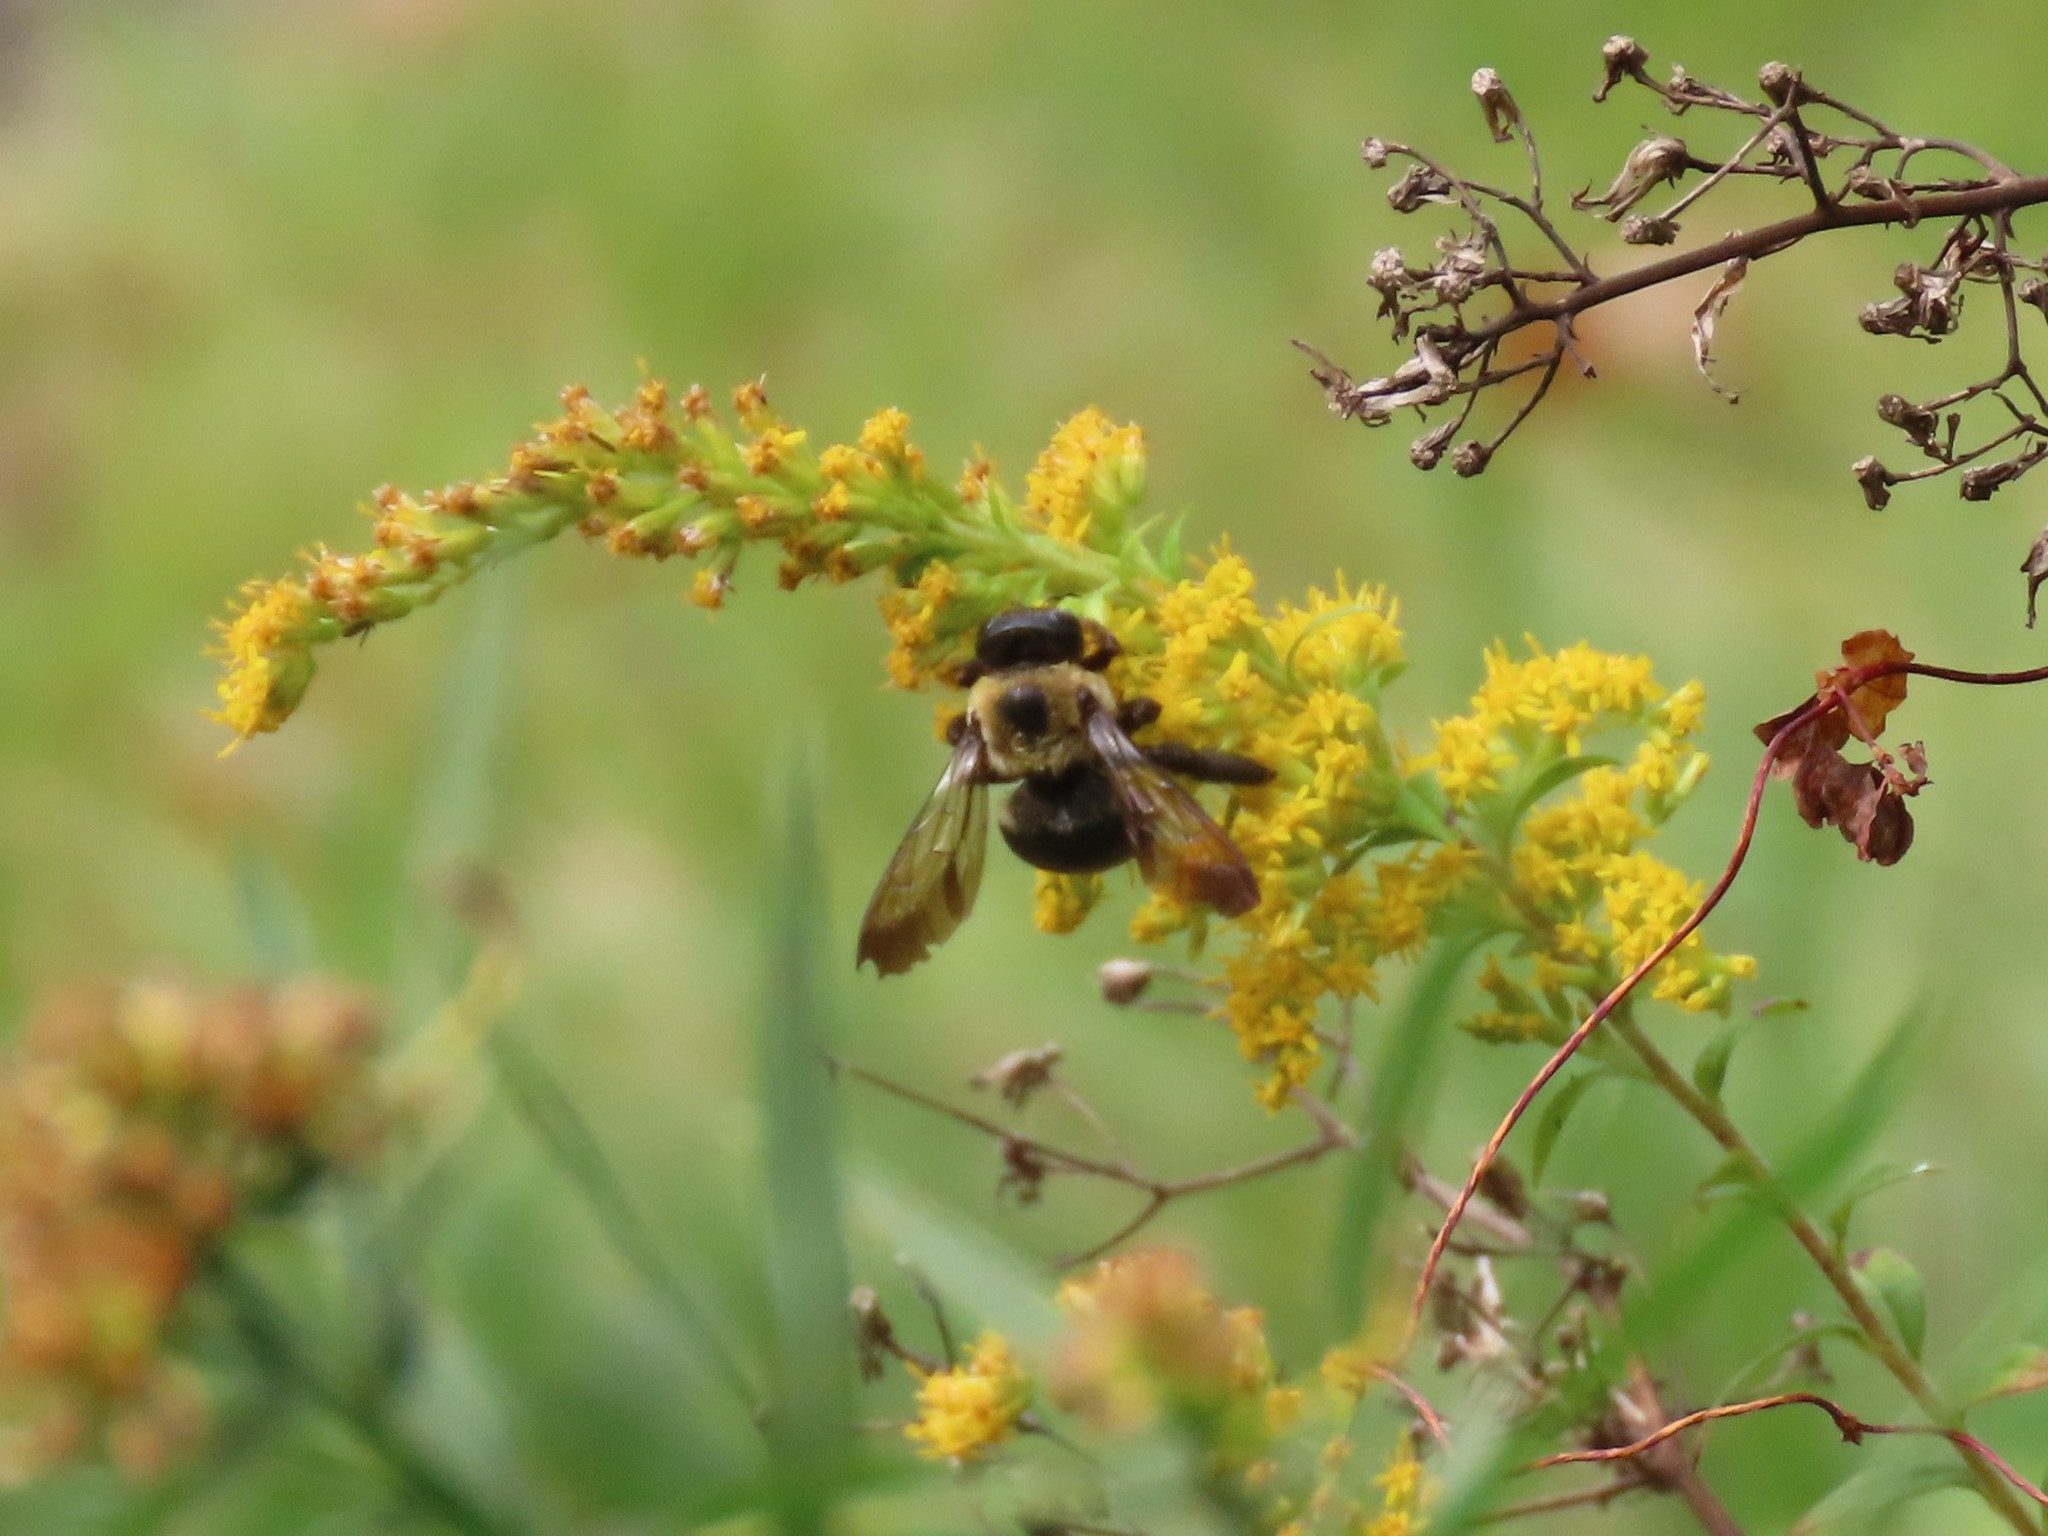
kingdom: Animalia
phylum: Arthropoda
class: Insecta
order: Hymenoptera
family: Apidae
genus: Xylocopa
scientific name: Xylocopa virginica
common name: Carpenter bee
